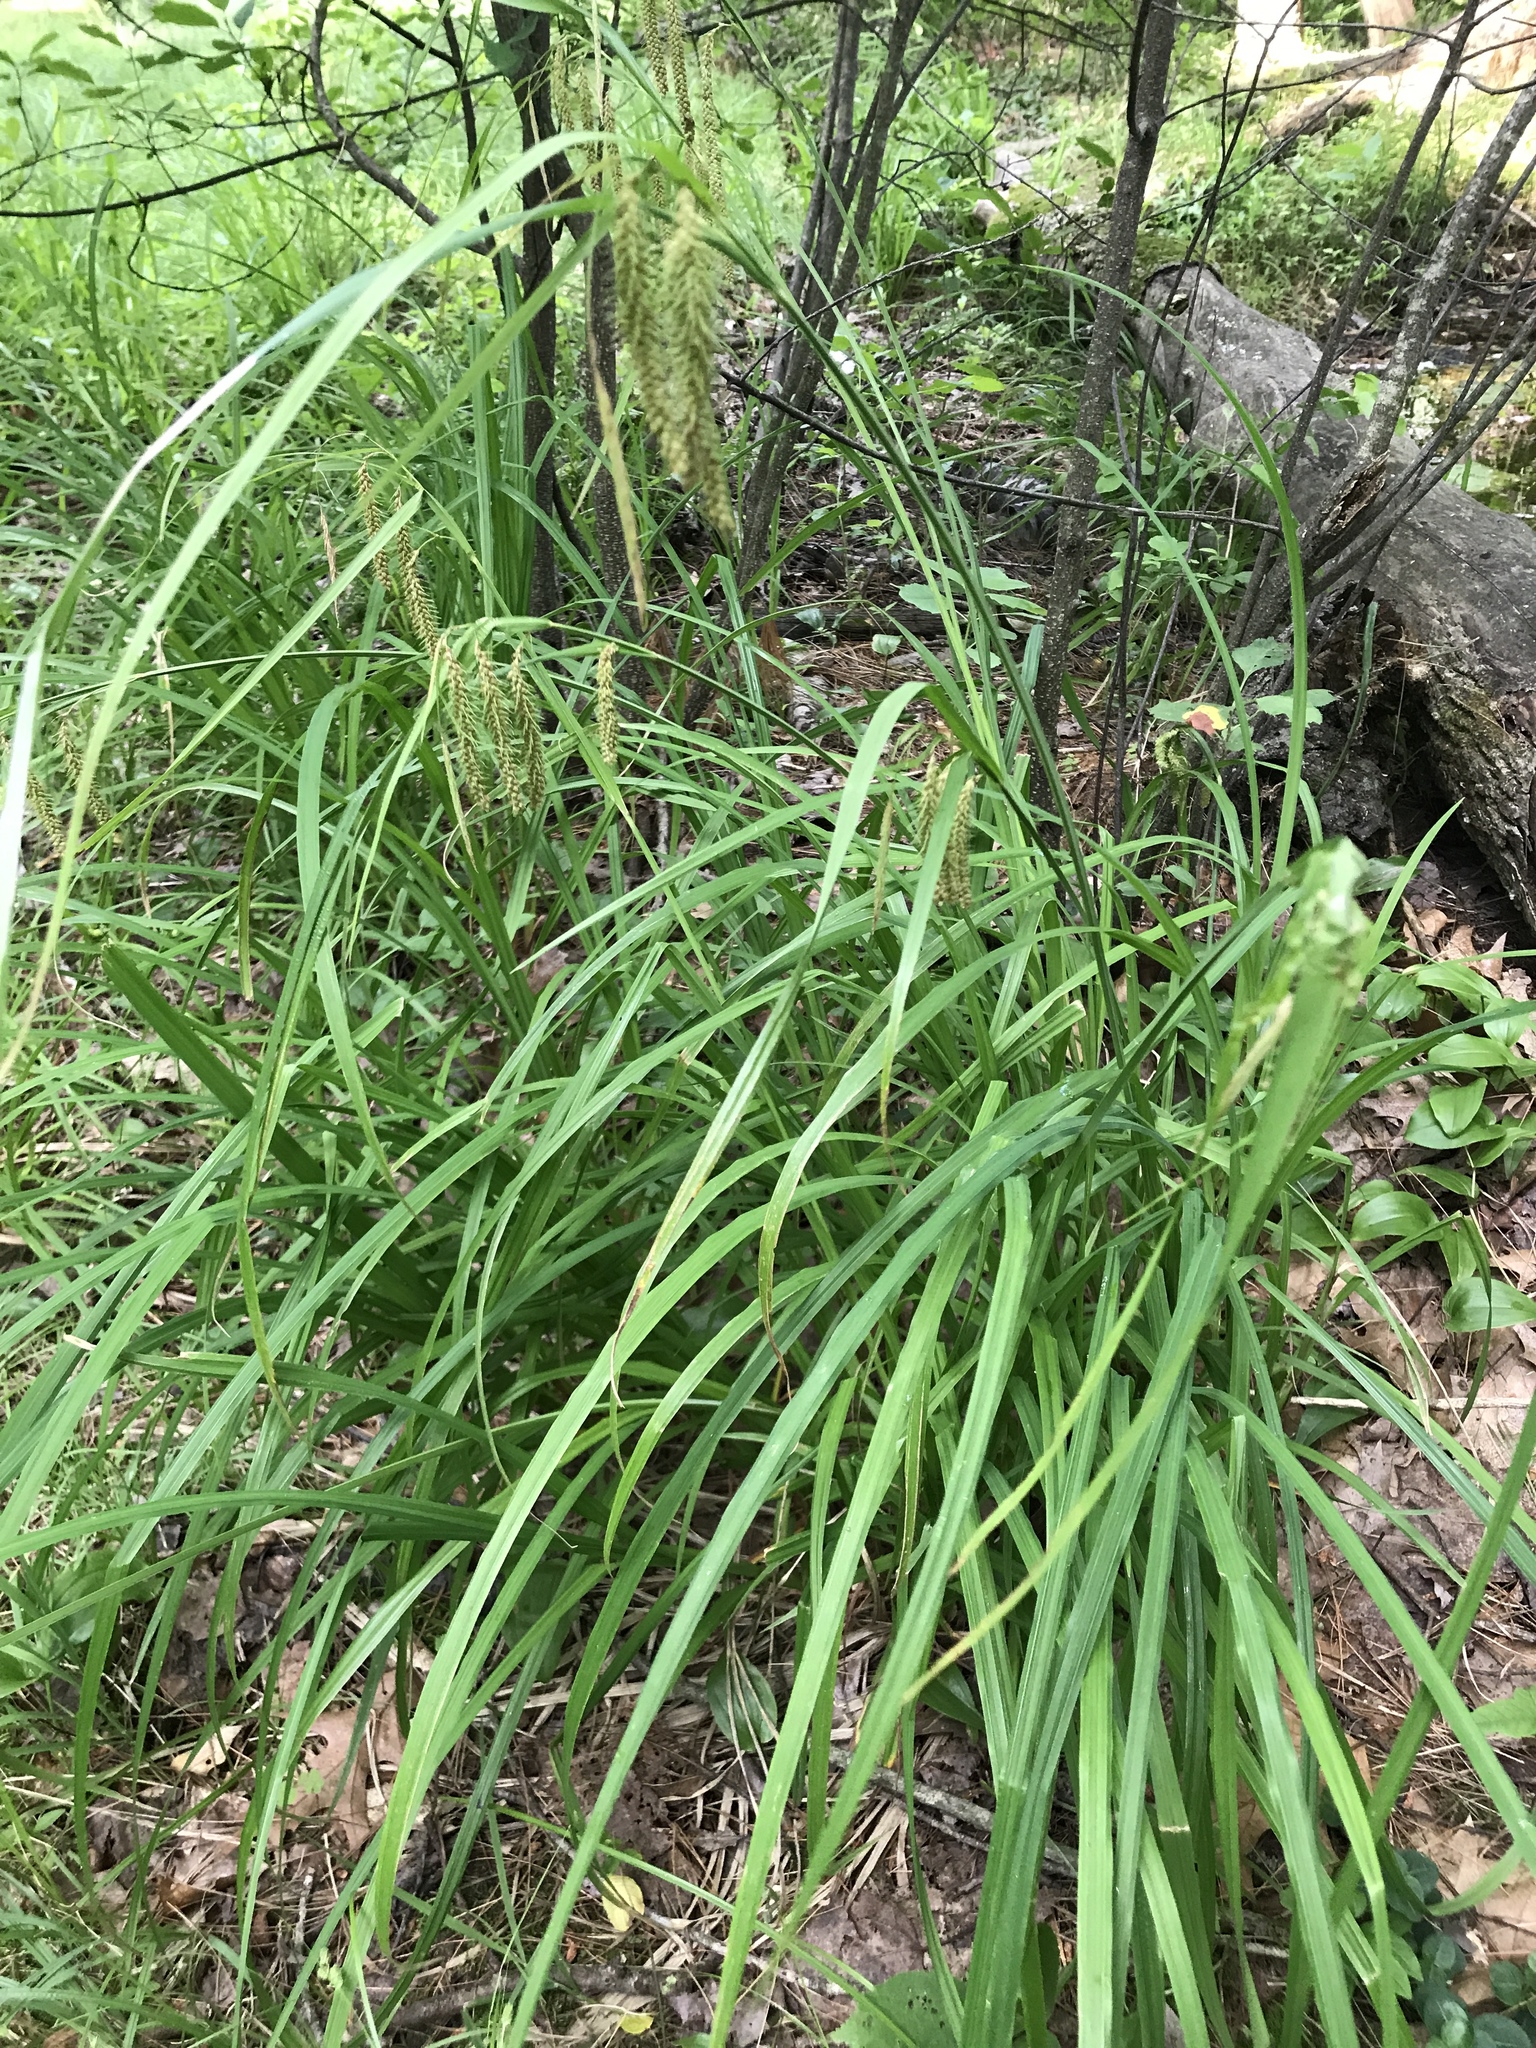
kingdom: Plantae
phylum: Tracheophyta
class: Liliopsida
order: Poales
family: Cyperaceae
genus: Carex
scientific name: Carex crinita
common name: Fringed sedge
